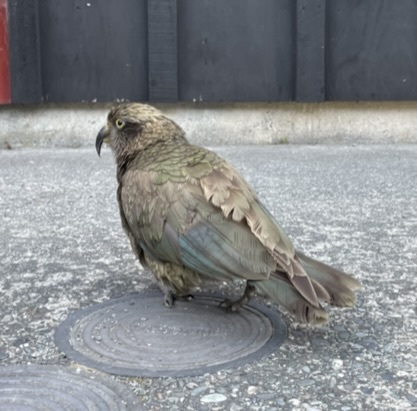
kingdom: Animalia
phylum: Chordata
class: Aves
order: Psittaciformes
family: Psittacidae
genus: Nestor
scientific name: Nestor notabilis
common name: Kea
